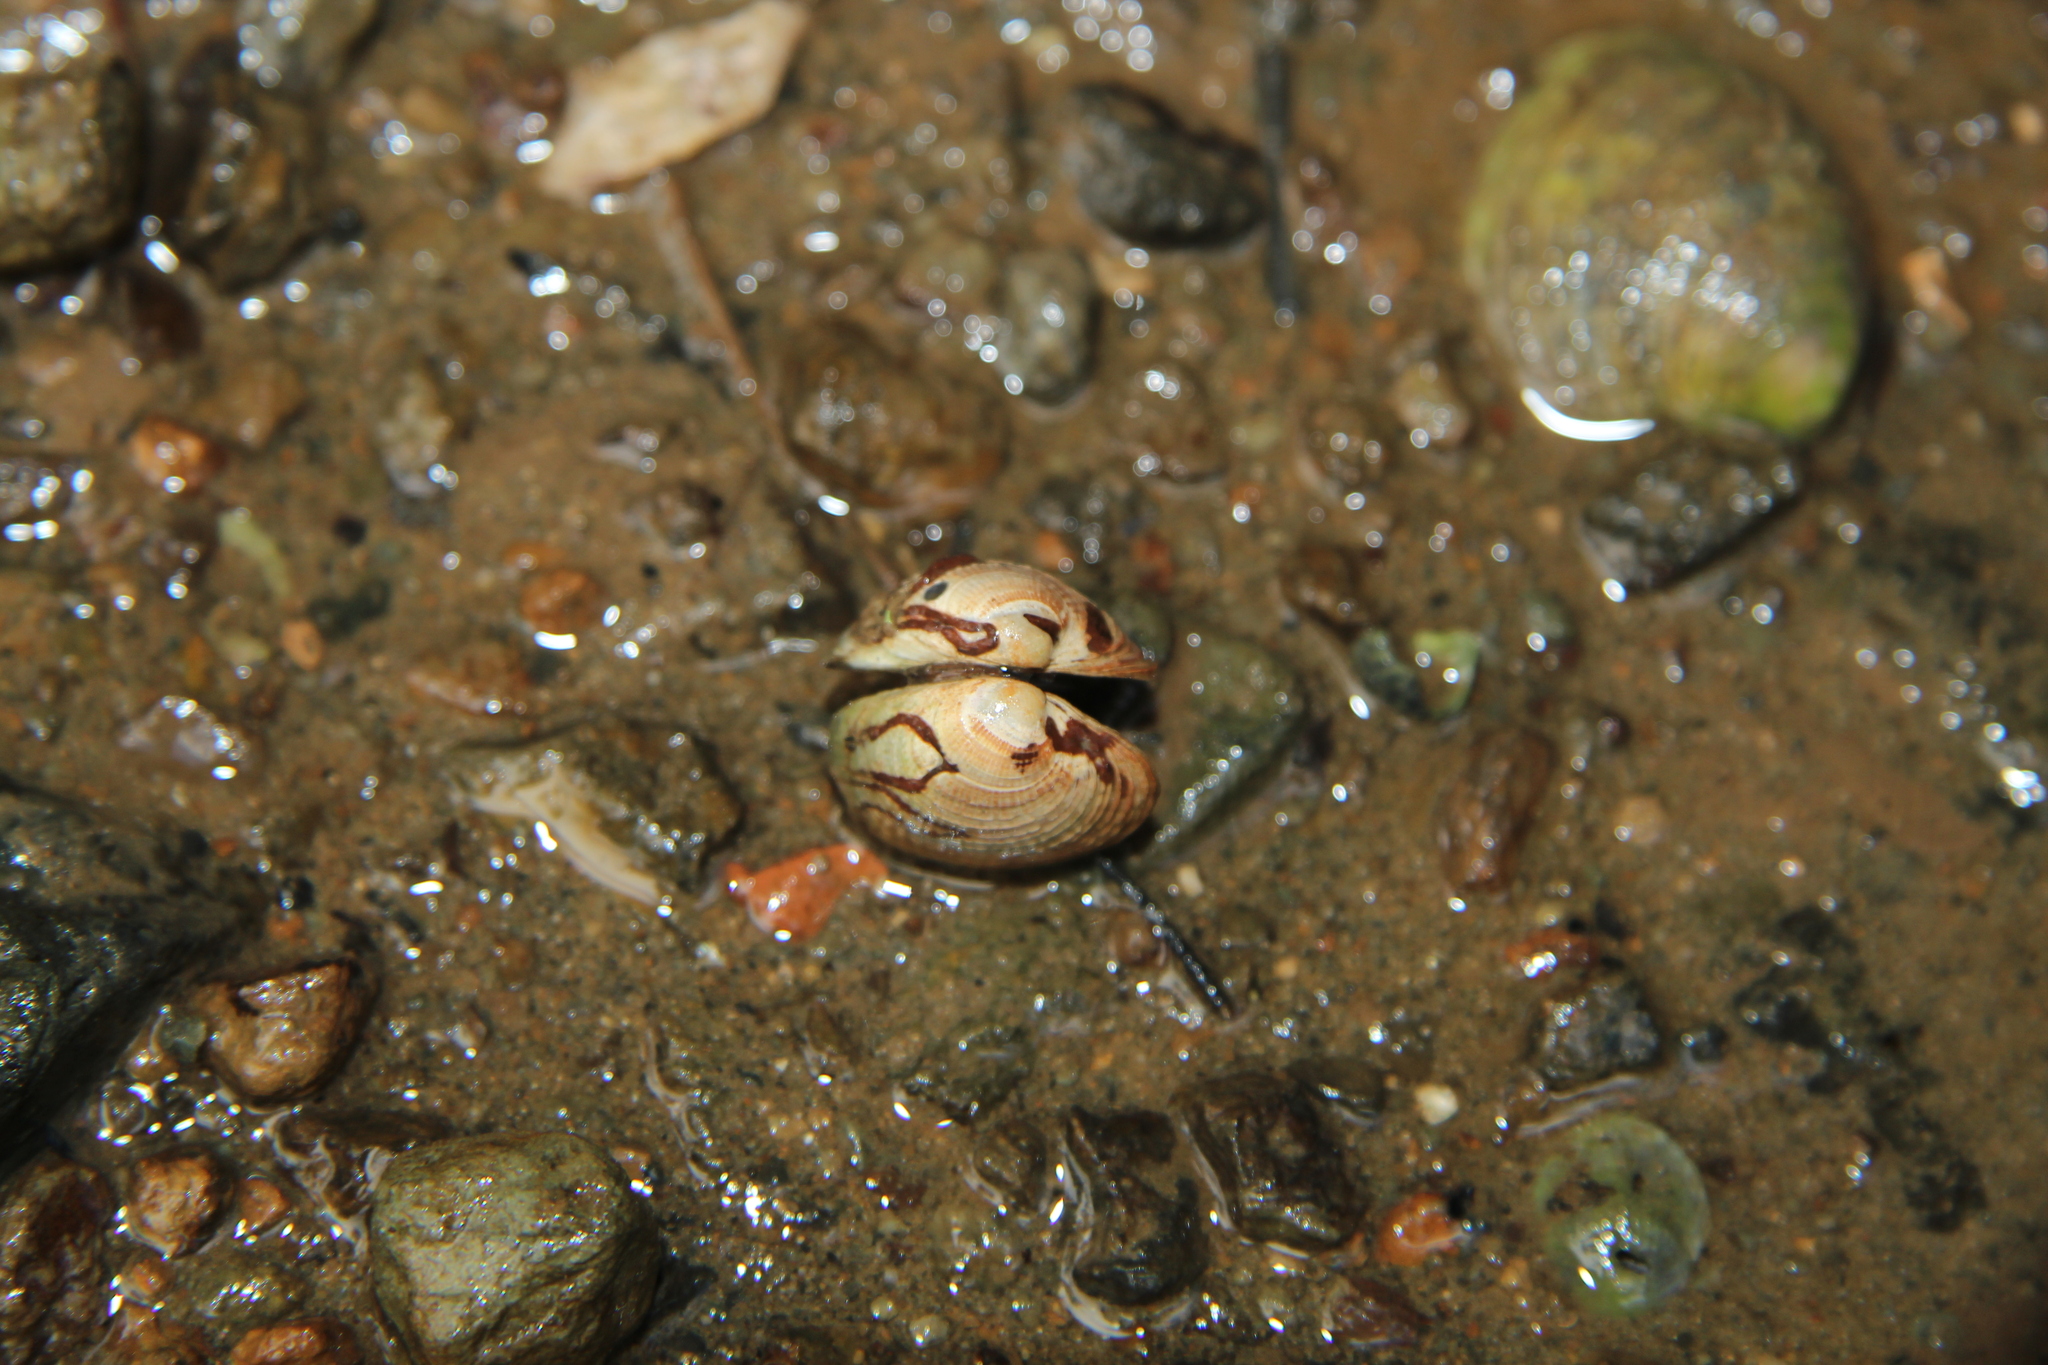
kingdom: Animalia
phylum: Annelida
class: Polychaeta
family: Spionidae
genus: Boccardia
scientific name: Boccardia acus
